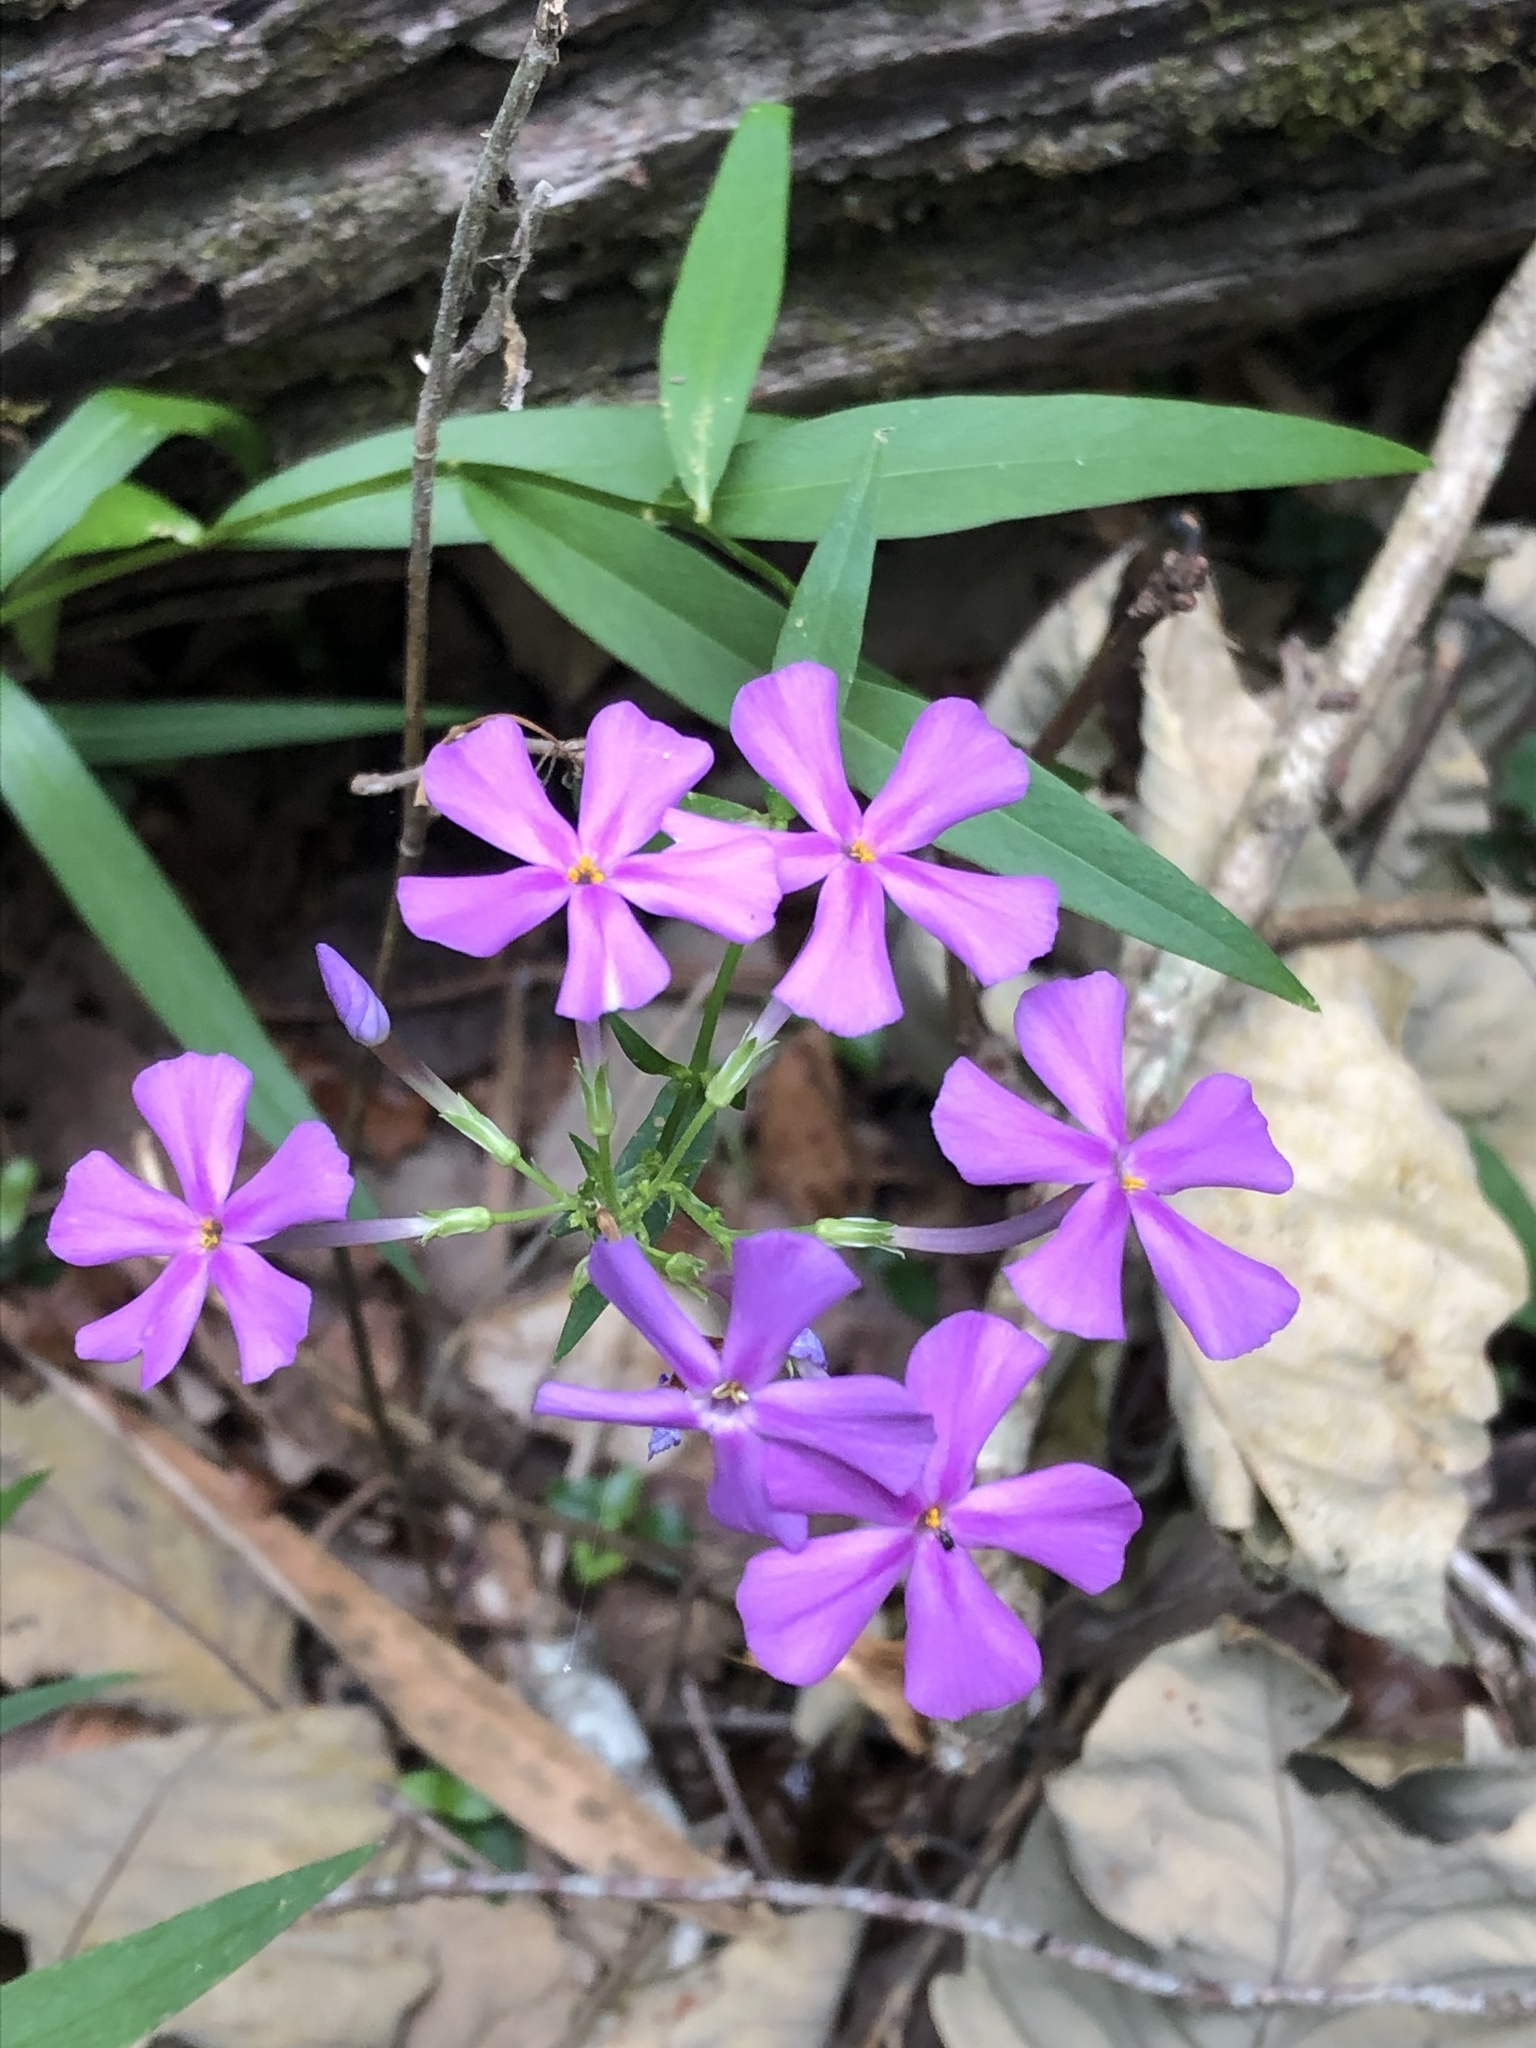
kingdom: Plantae
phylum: Tracheophyta
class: Magnoliopsida
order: Ericales
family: Polemoniaceae
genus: Phlox
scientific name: Phlox carolina
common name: Thick-leaf phlox
